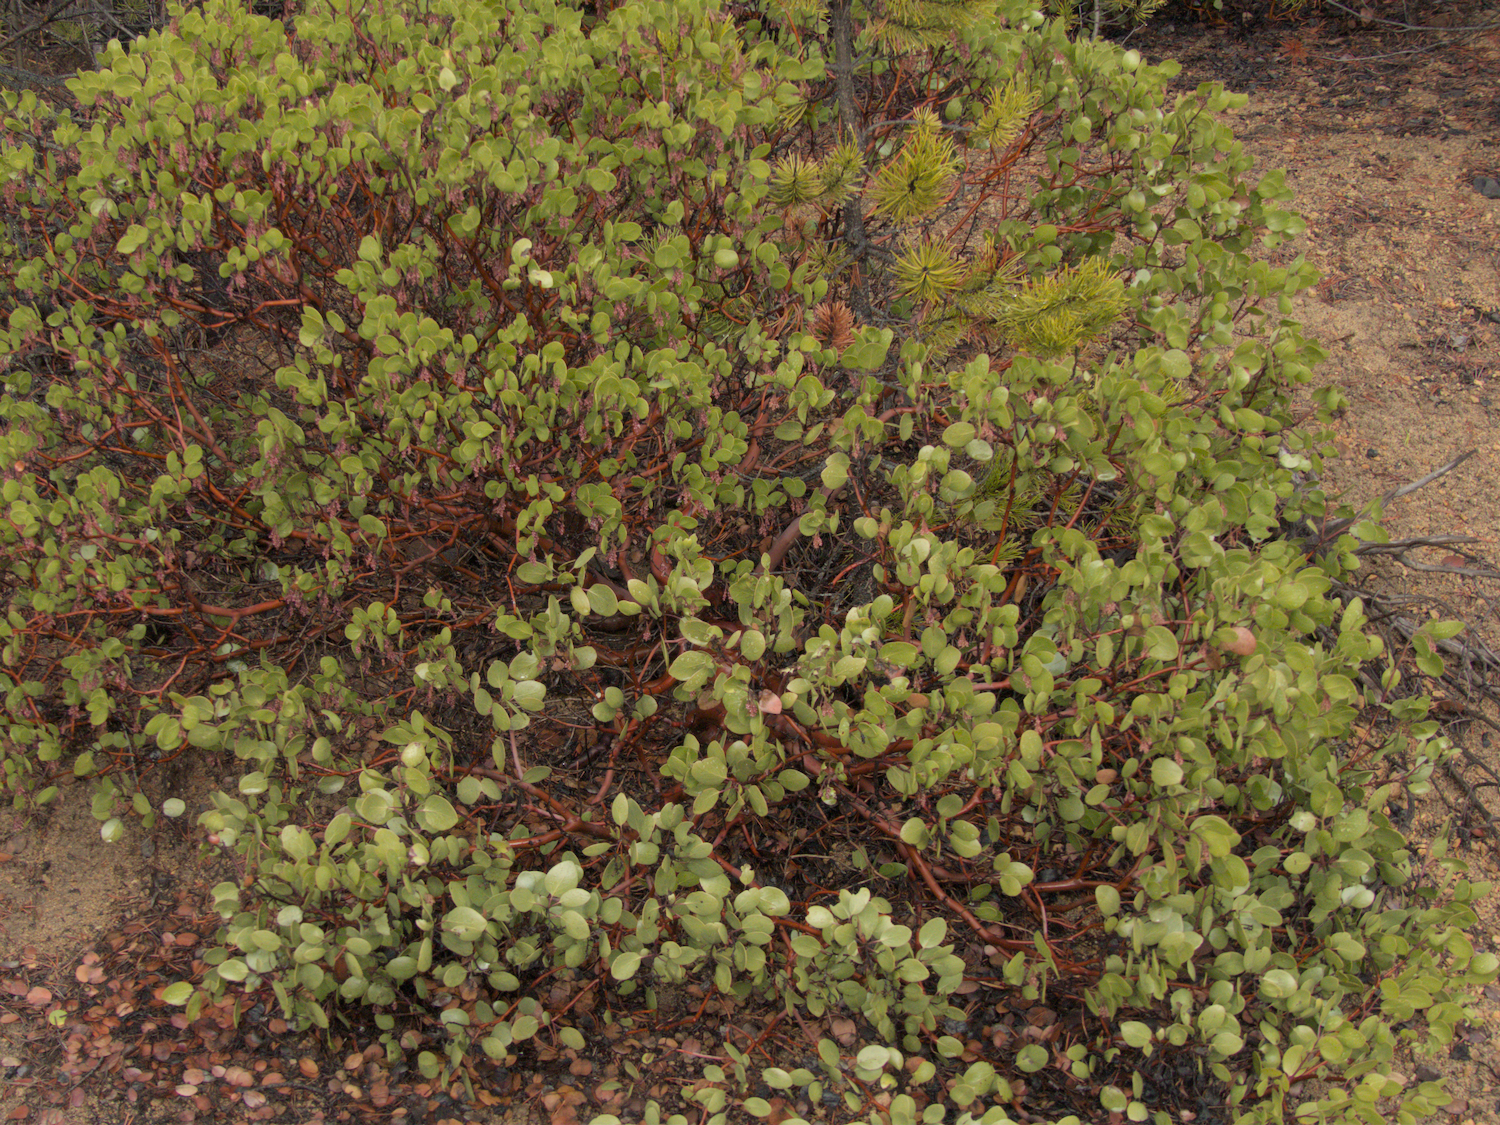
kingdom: Plantae
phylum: Tracheophyta
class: Magnoliopsida
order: Ericales
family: Ericaceae
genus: Arctostaphylos
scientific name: Arctostaphylos patula
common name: Green-leaf manzanita
